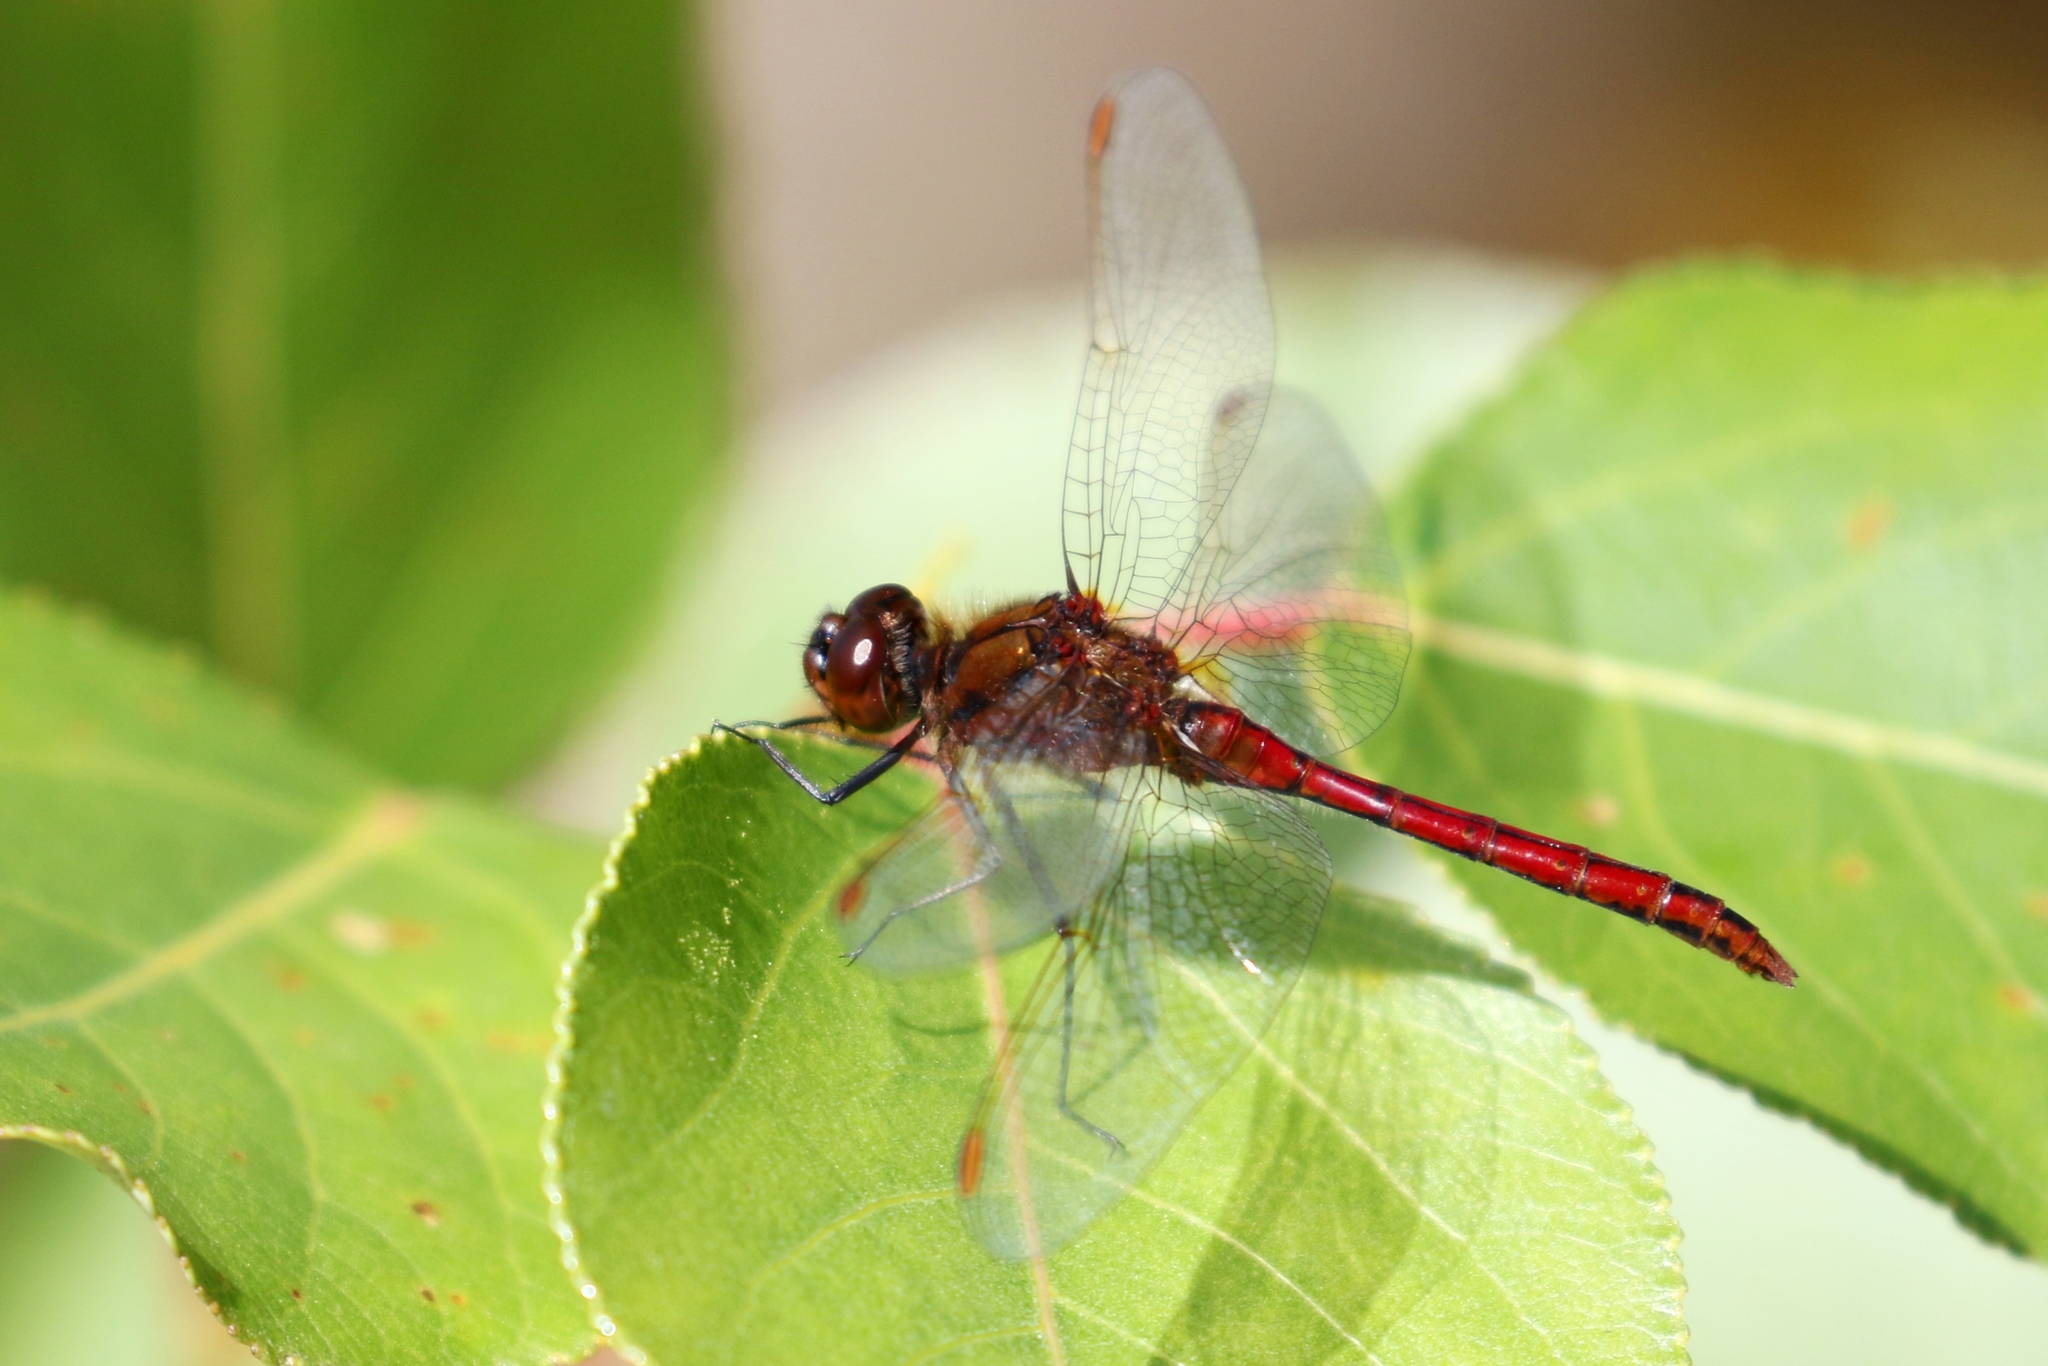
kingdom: Animalia
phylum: Arthropoda
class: Insecta
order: Odonata
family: Libellulidae
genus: Sympetrum
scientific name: Sympetrum costiferum
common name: Saffron-winged meadowhawk
